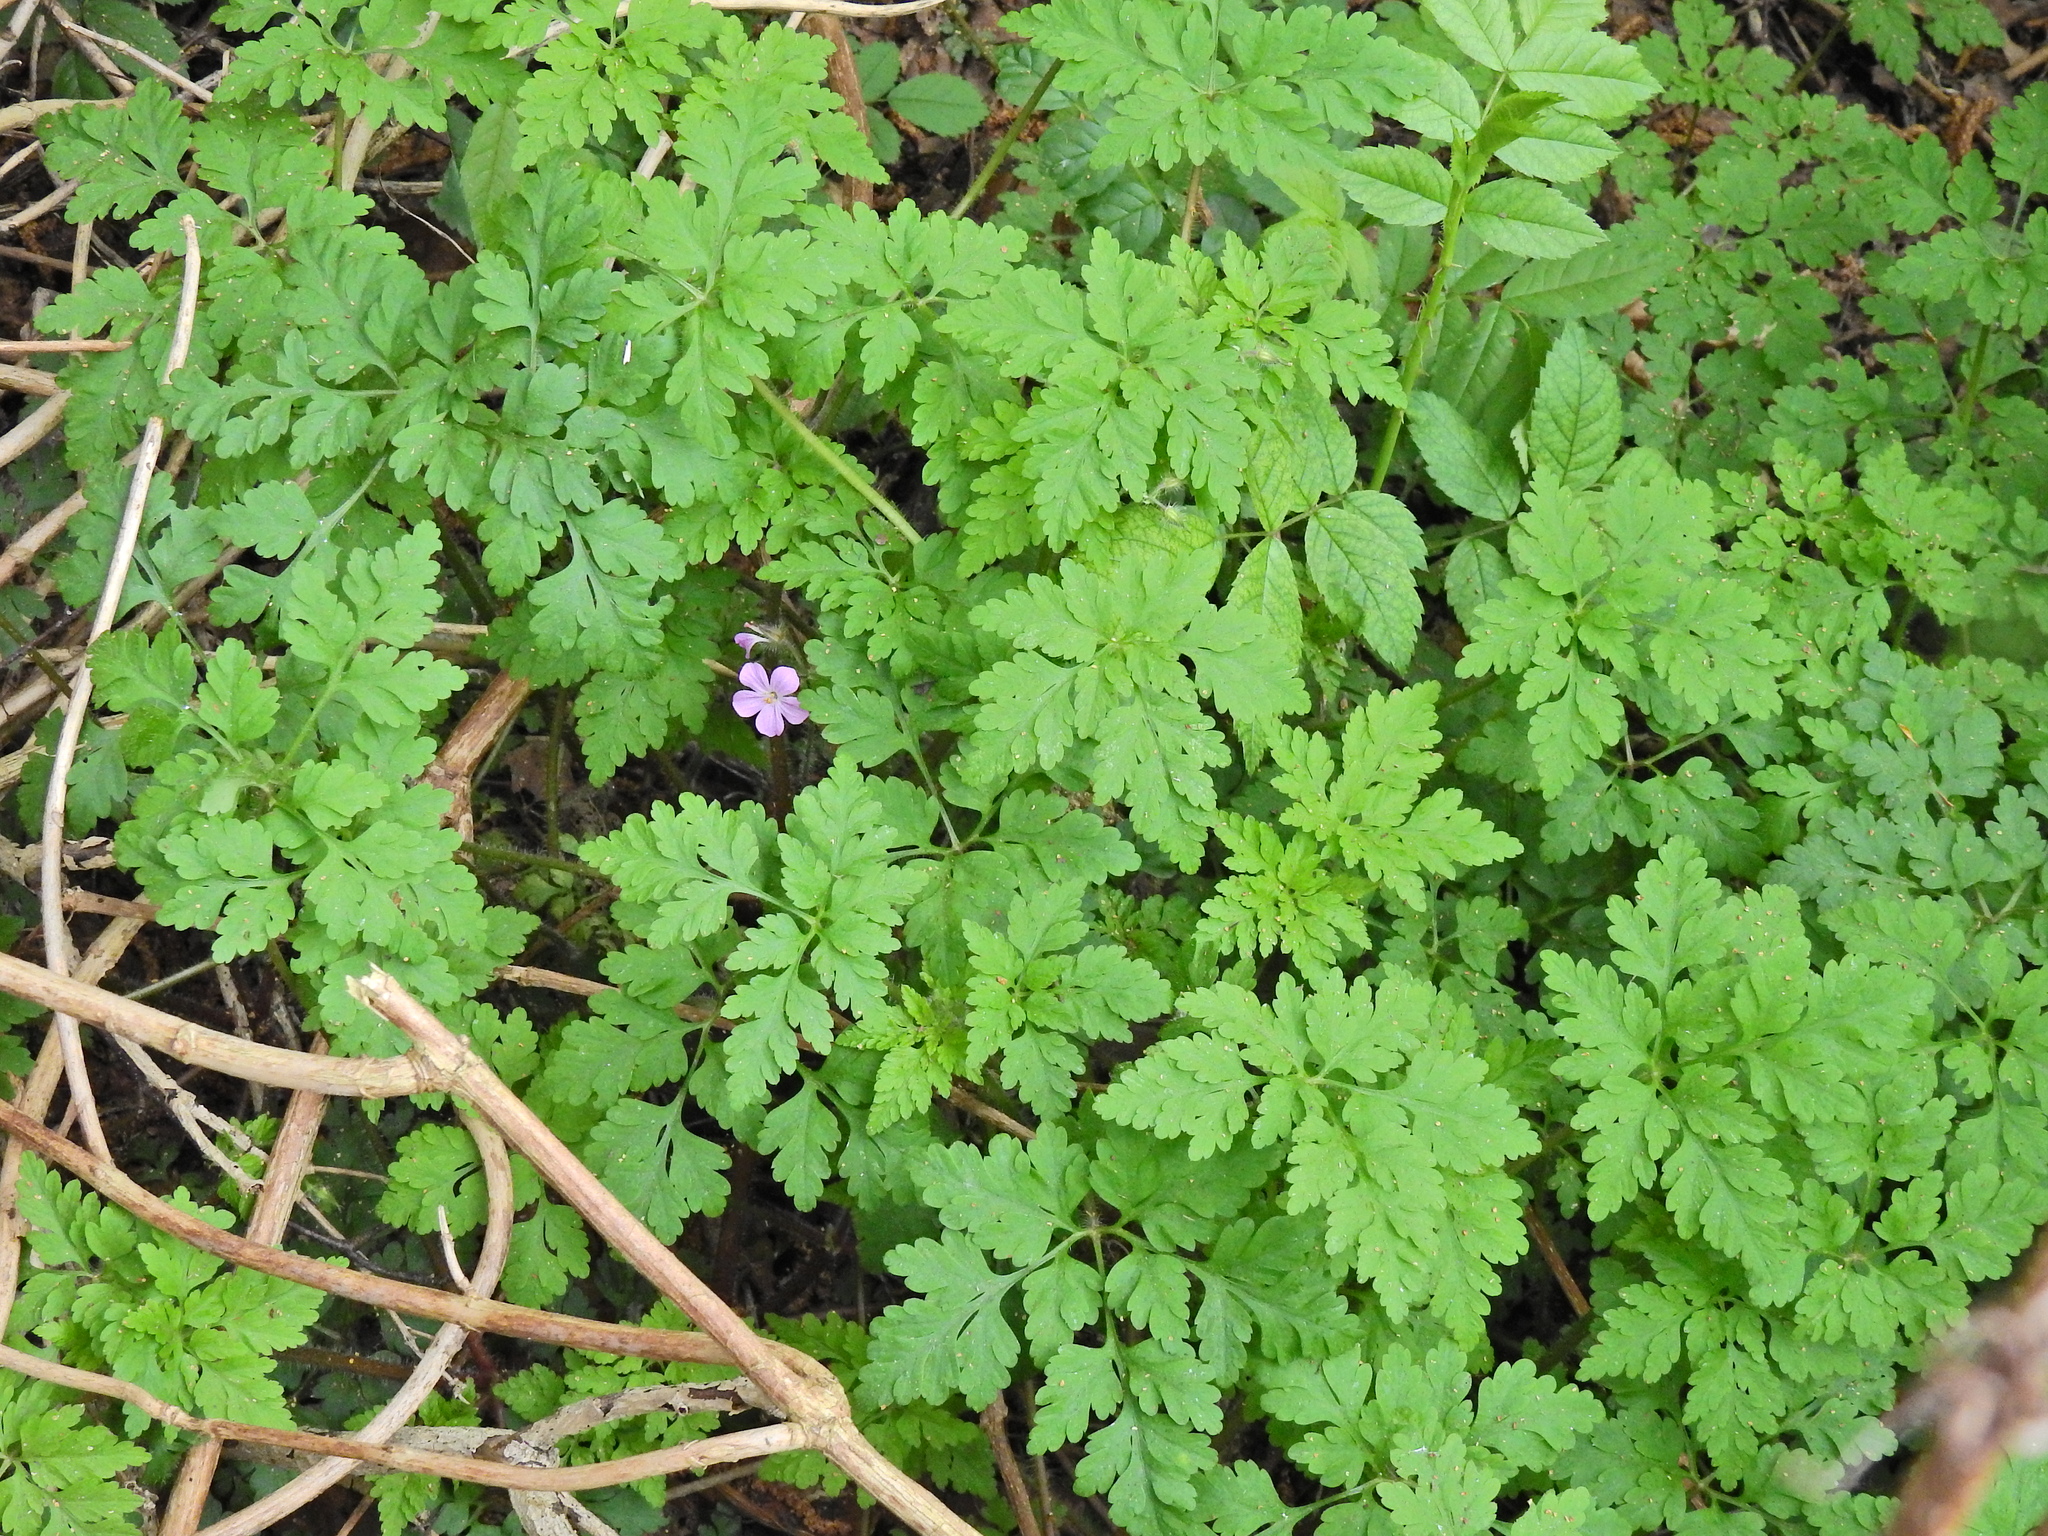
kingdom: Plantae
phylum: Tracheophyta
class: Magnoliopsida
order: Geraniales
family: Geraniaceae
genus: Geranium
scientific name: Geranium robertianum
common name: Herb-robert
